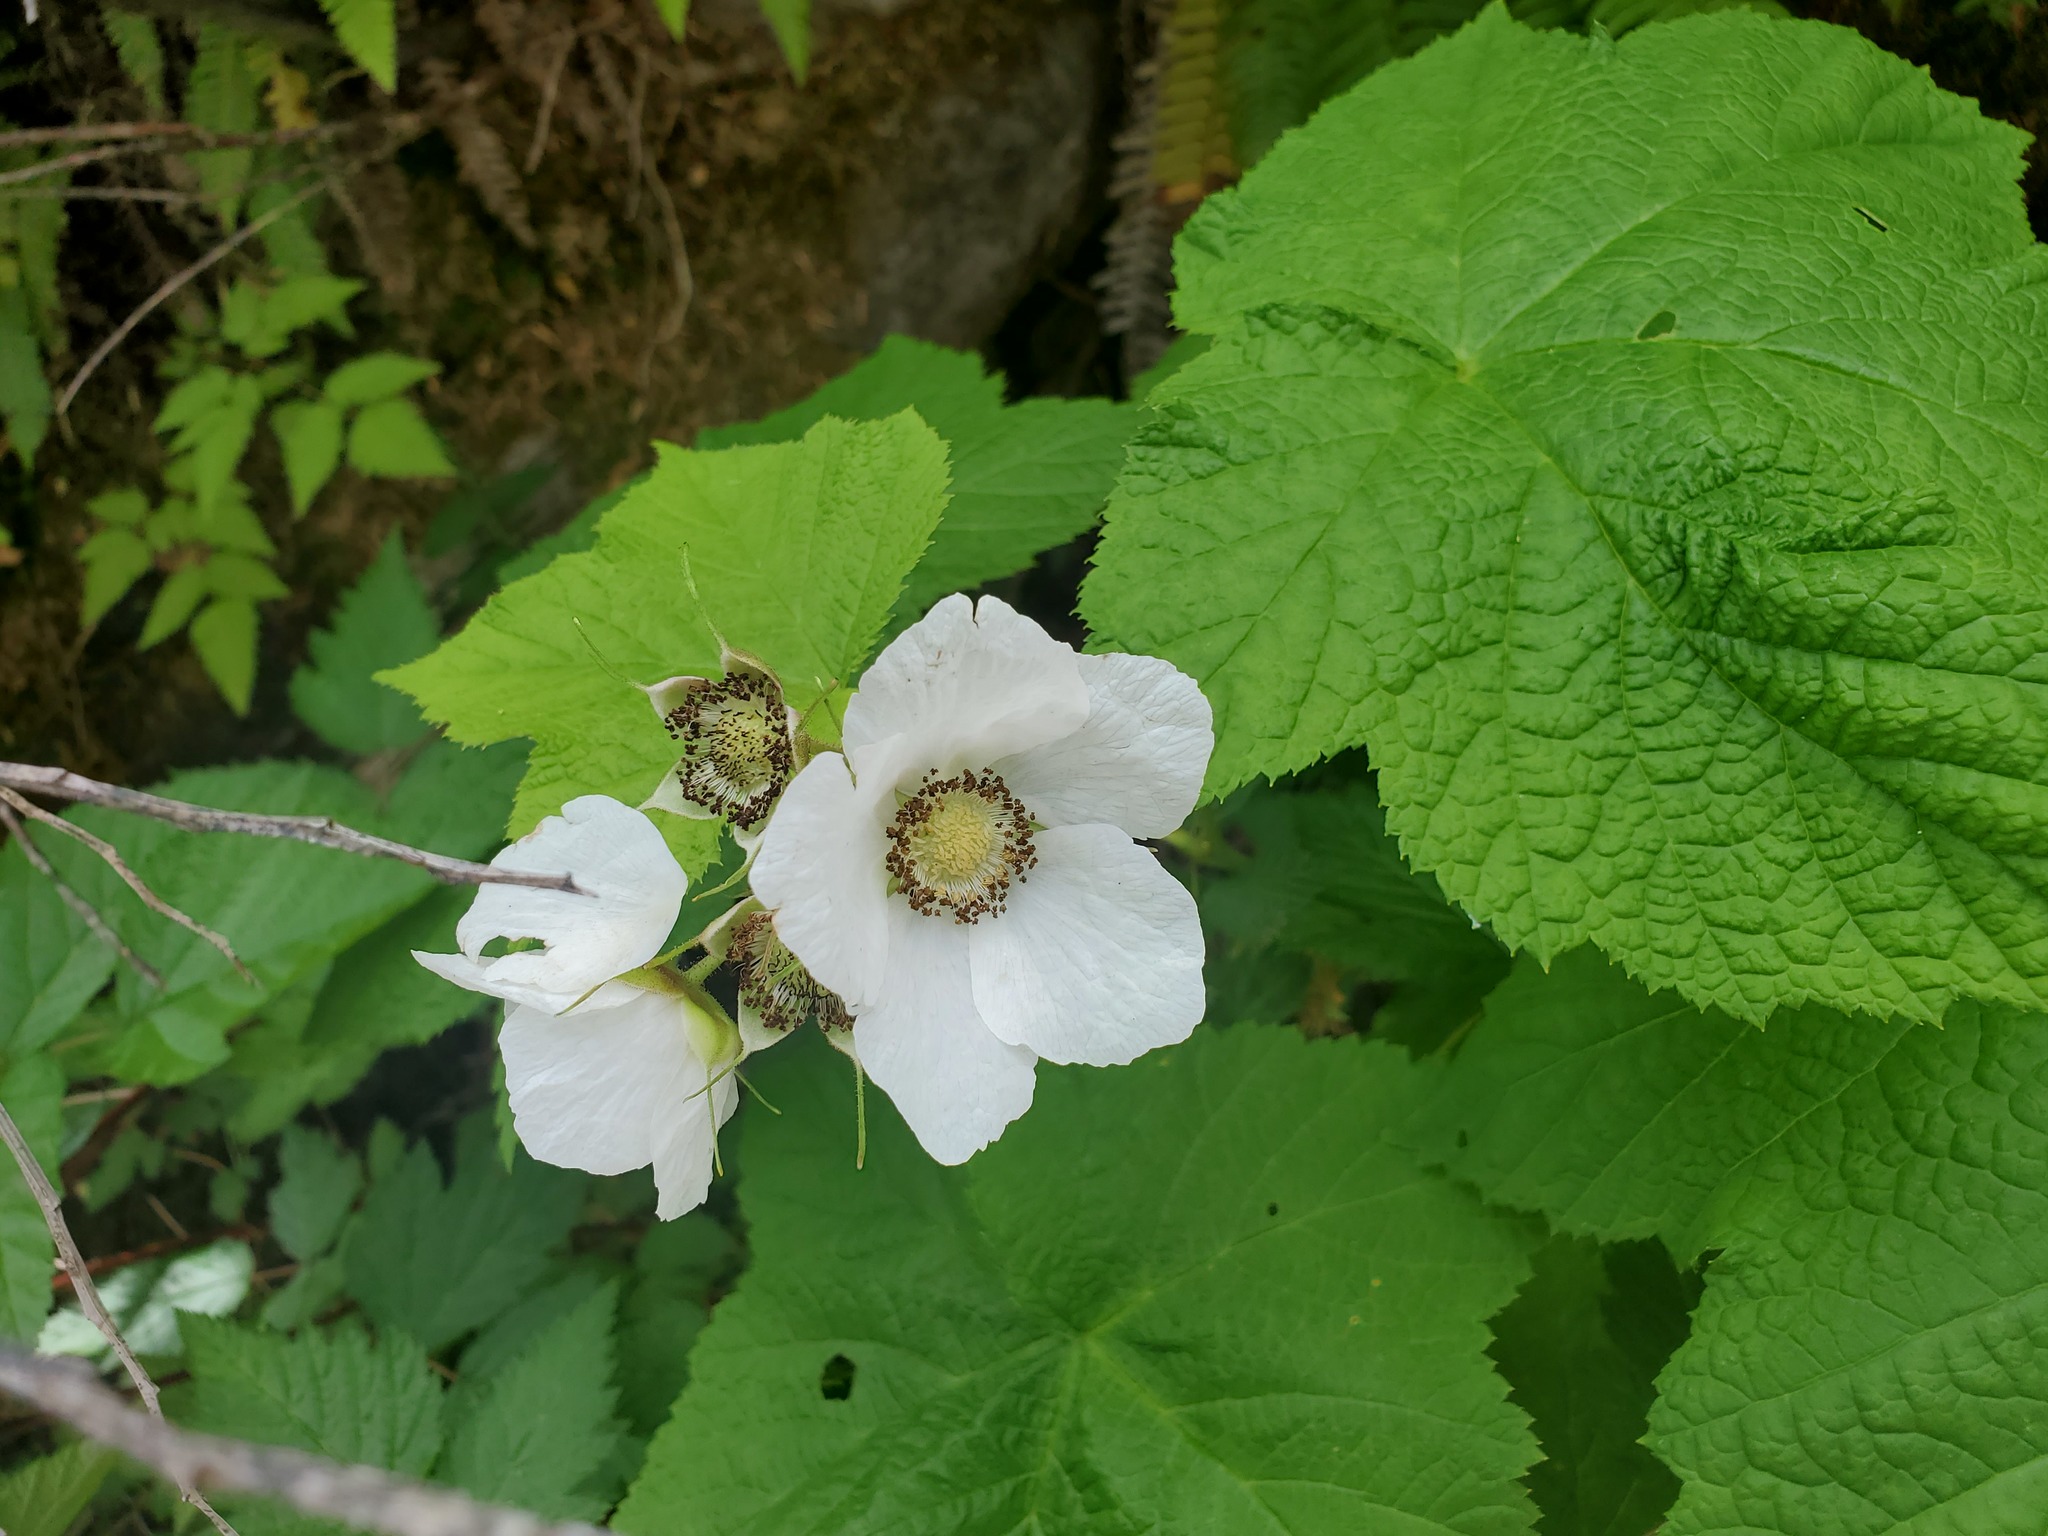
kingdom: Plantae
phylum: Tracheophyta
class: Magnoliopsida
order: Rosales
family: Rosaceae
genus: Rubus
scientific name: Rubus parviflorus
